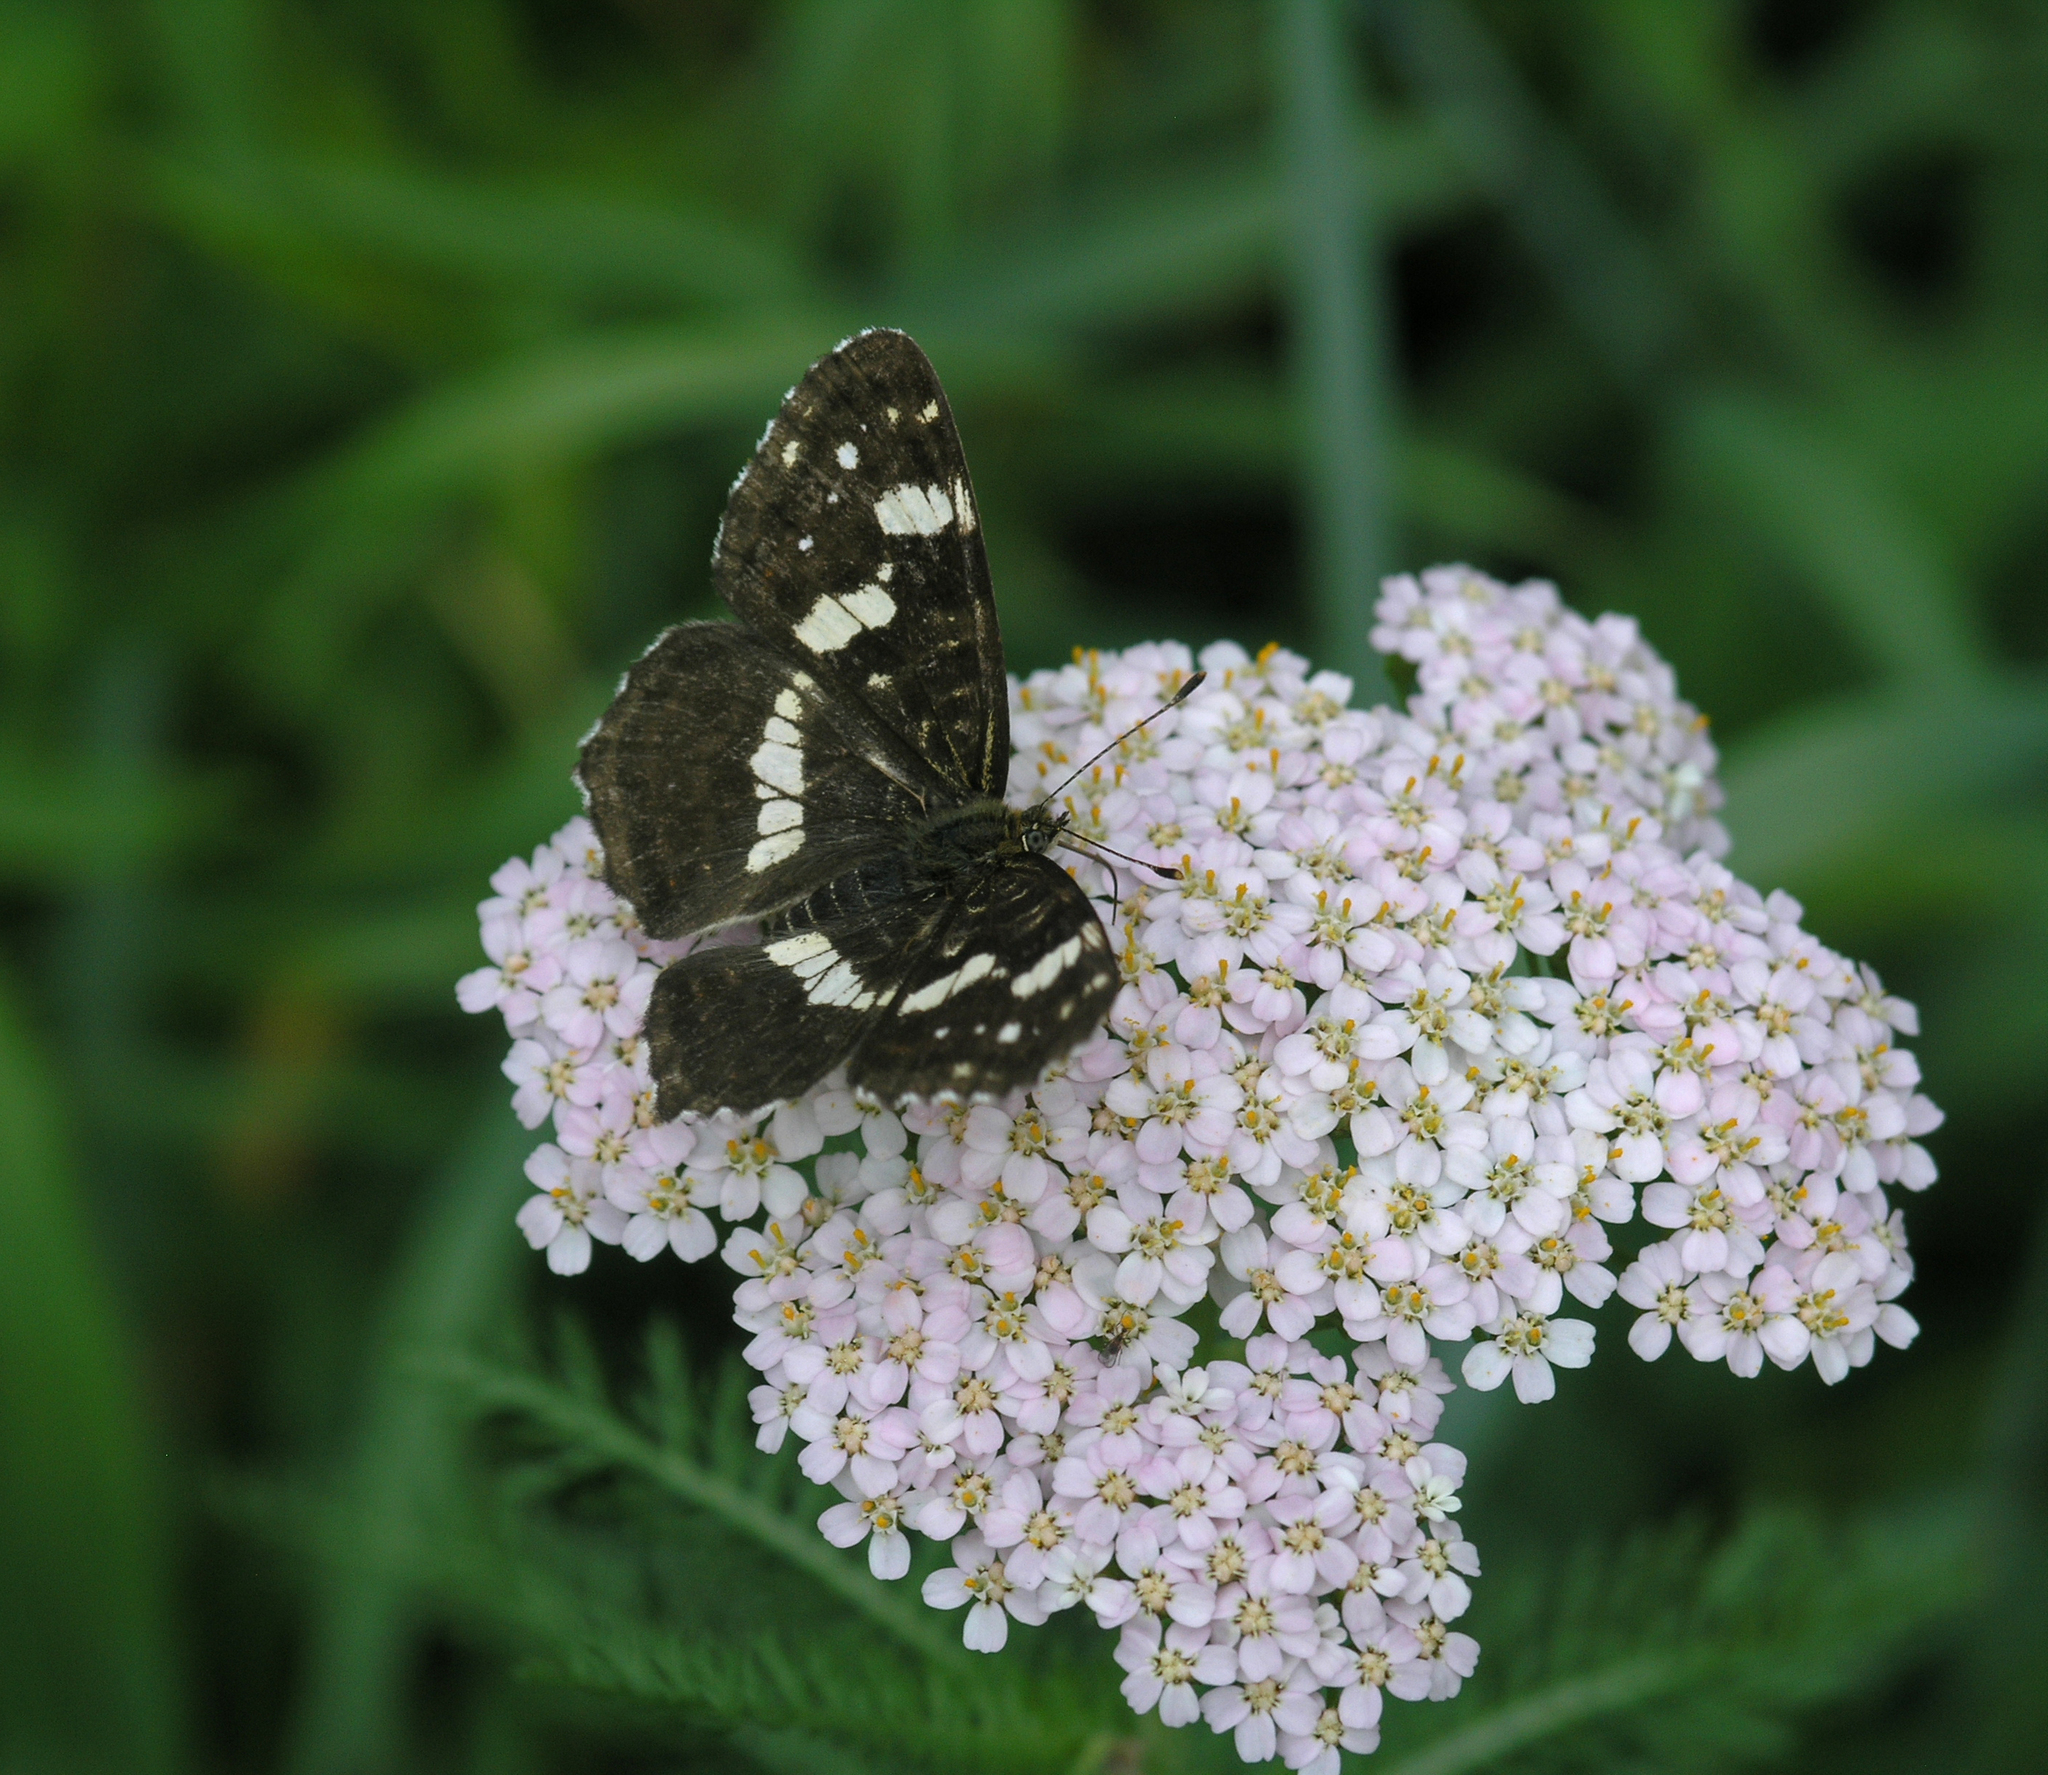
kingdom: Plantae
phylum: Tracheophyta
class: Magnoliopsida
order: Asterales
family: Asteraceae
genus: Achillea
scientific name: Achillea millefolium
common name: Yarrow
